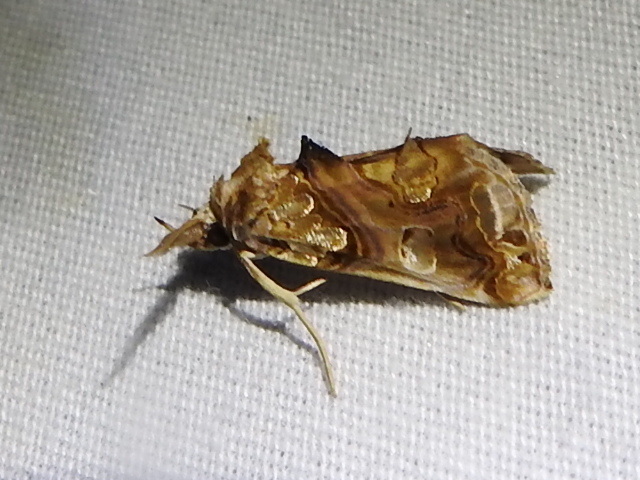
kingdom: Animalia
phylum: Arthropoda
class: Insecta
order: Lepidoptera
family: Erebidae
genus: Plusiodonta
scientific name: Plusiodonta compressipalpis
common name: Moonseed moth
